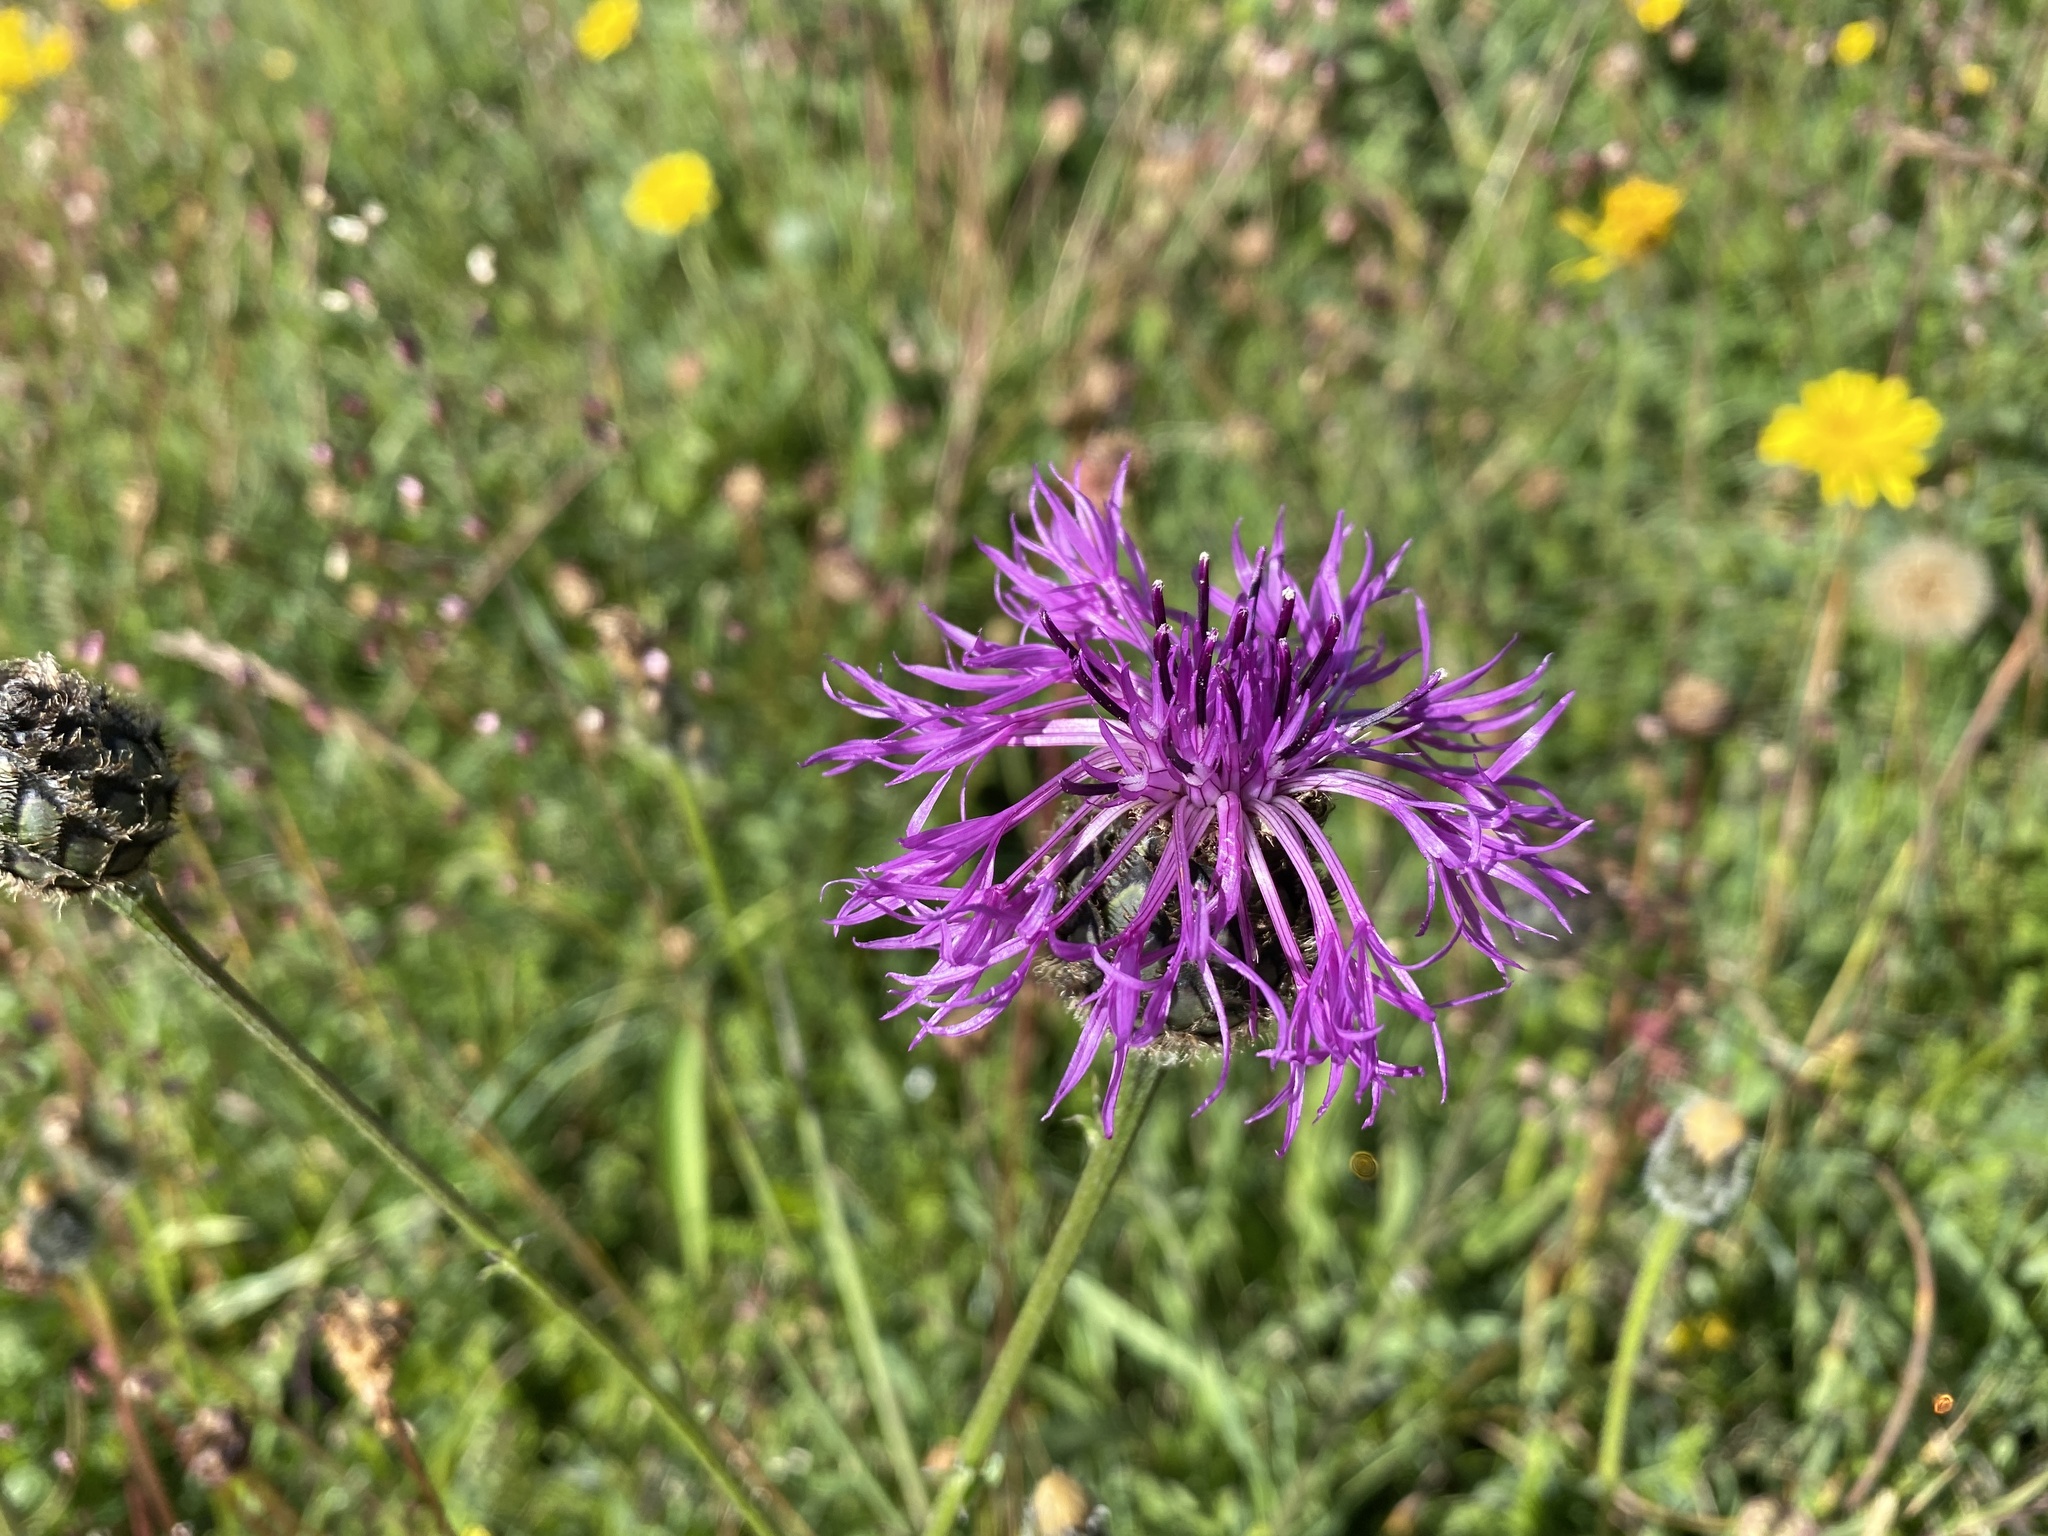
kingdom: Plantae
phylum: Tracheophyta
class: Magnoliopsida
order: Asterales
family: Asteraceae
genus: Centaurea
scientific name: Centaurea scabiosa
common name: Greater knapweed
